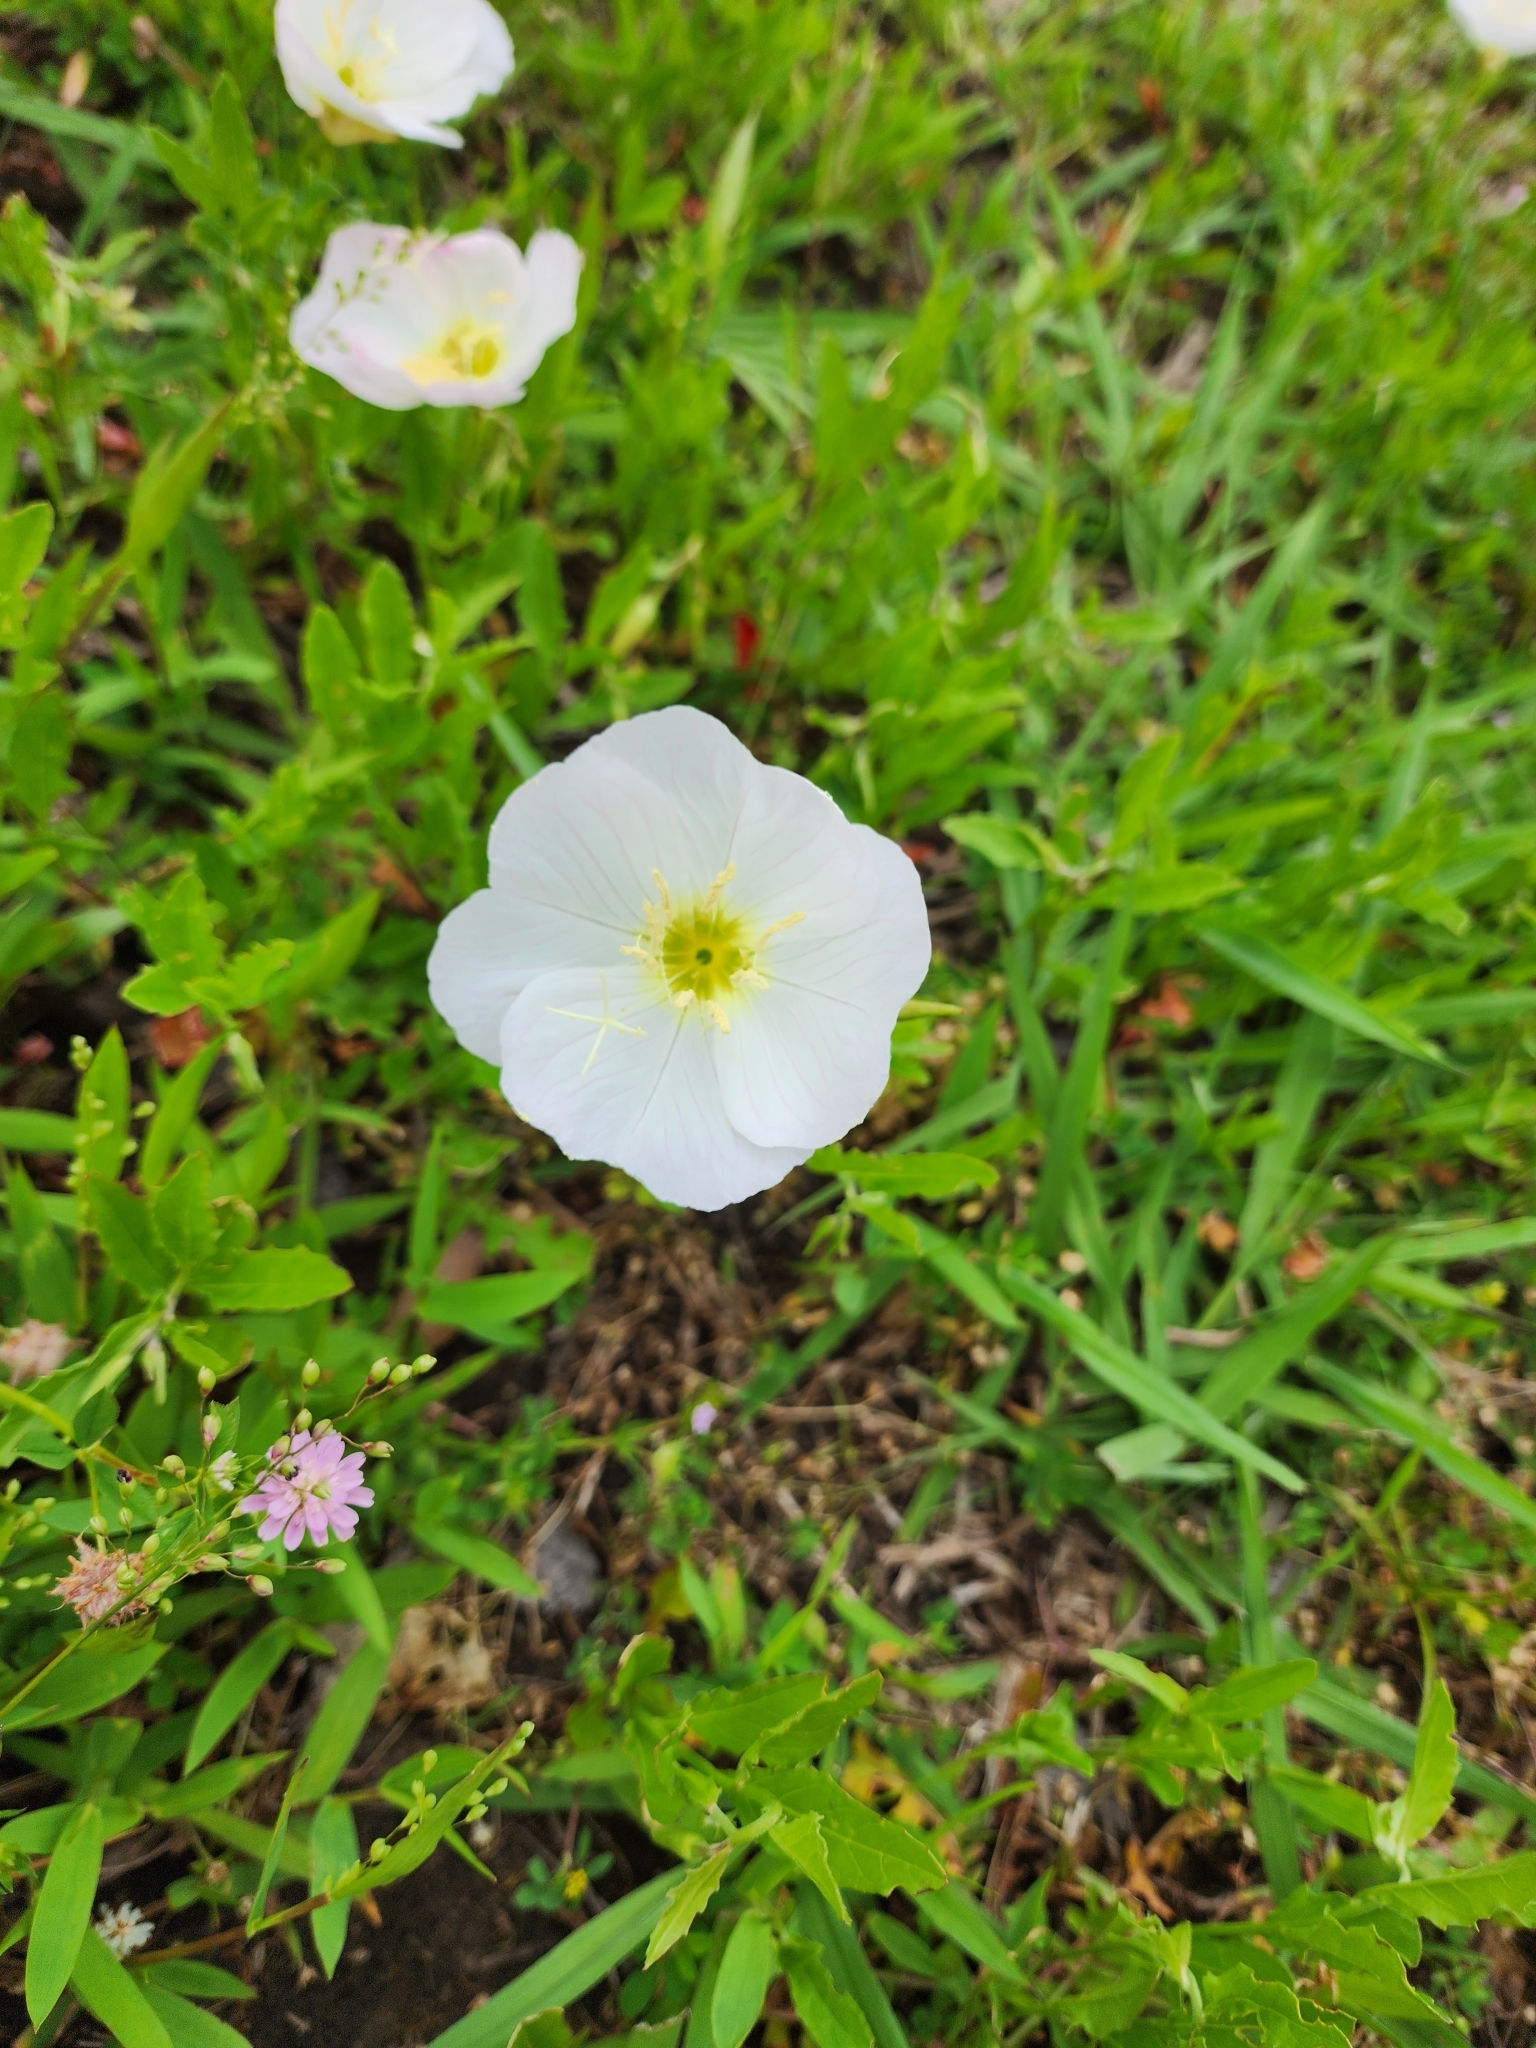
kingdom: Plantae
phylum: Tracheophyta
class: Magnoliopsida
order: Myrtales
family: Onagraceae
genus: Oenothera
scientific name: Oenothera speciosa
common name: White evening-primrose
